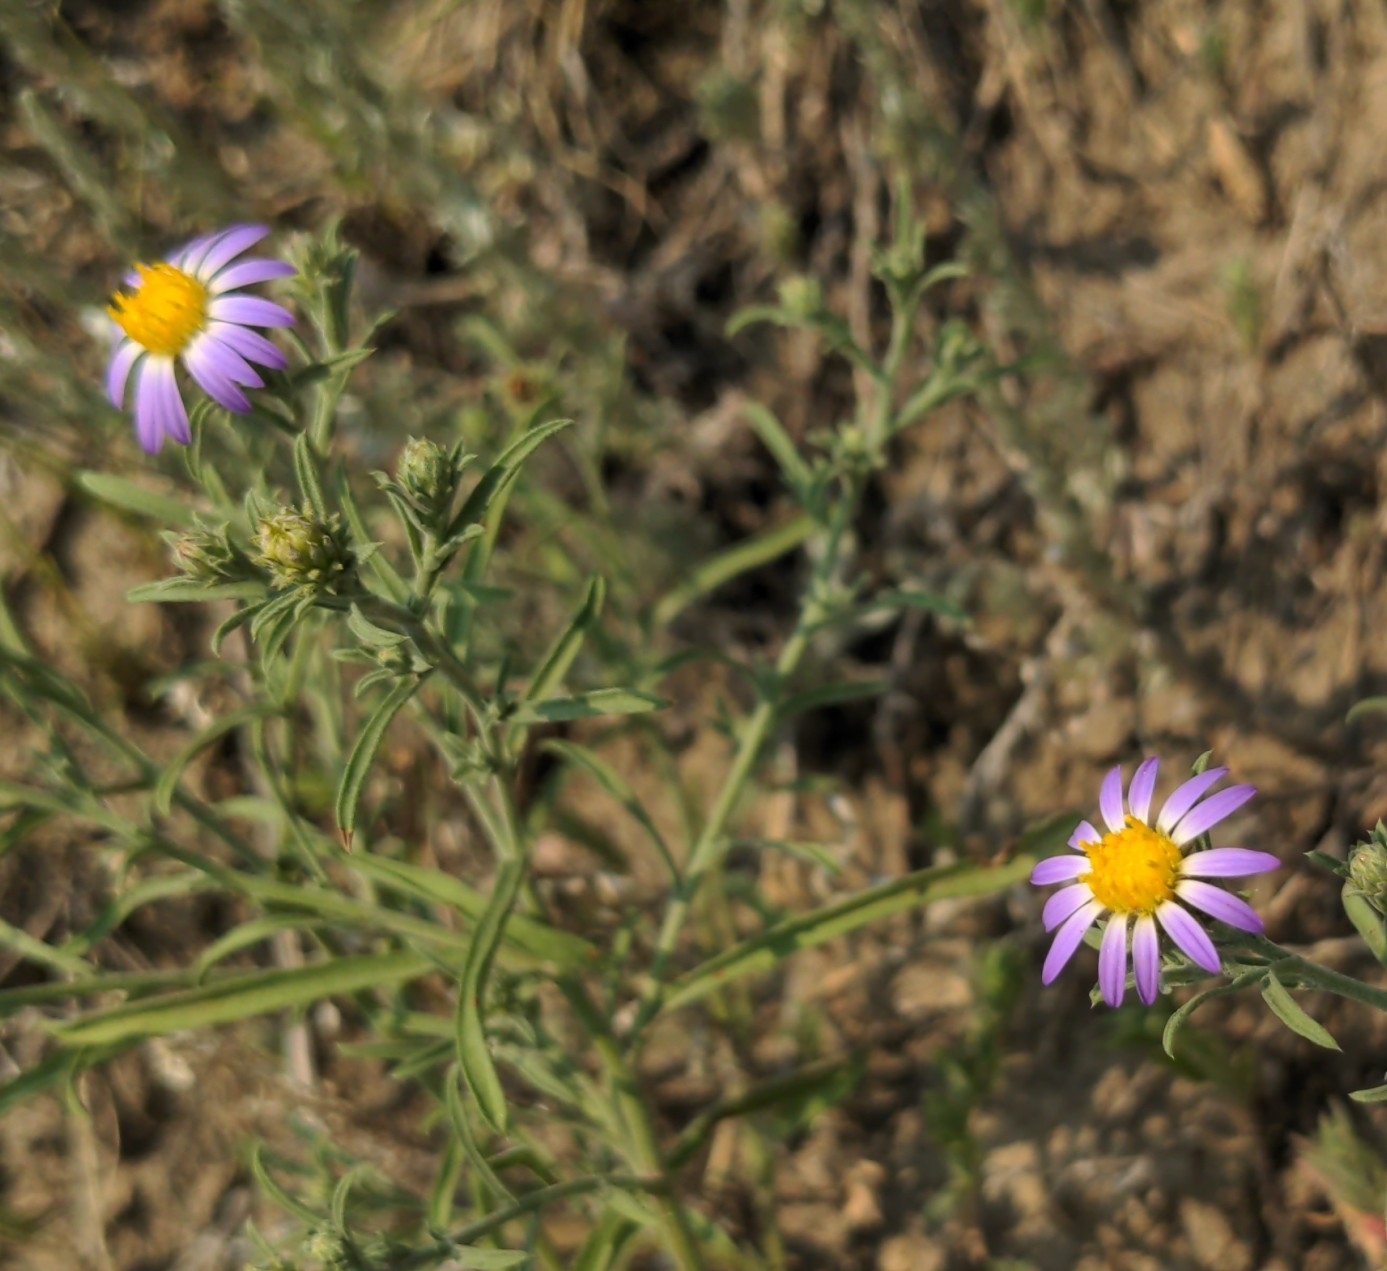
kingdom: Plantae
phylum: Tracheophyta
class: Magnoliopsida
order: Asterales
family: Asteraceae
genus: Dieteria
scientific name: Dieteria canescens
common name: Hoary-aster
